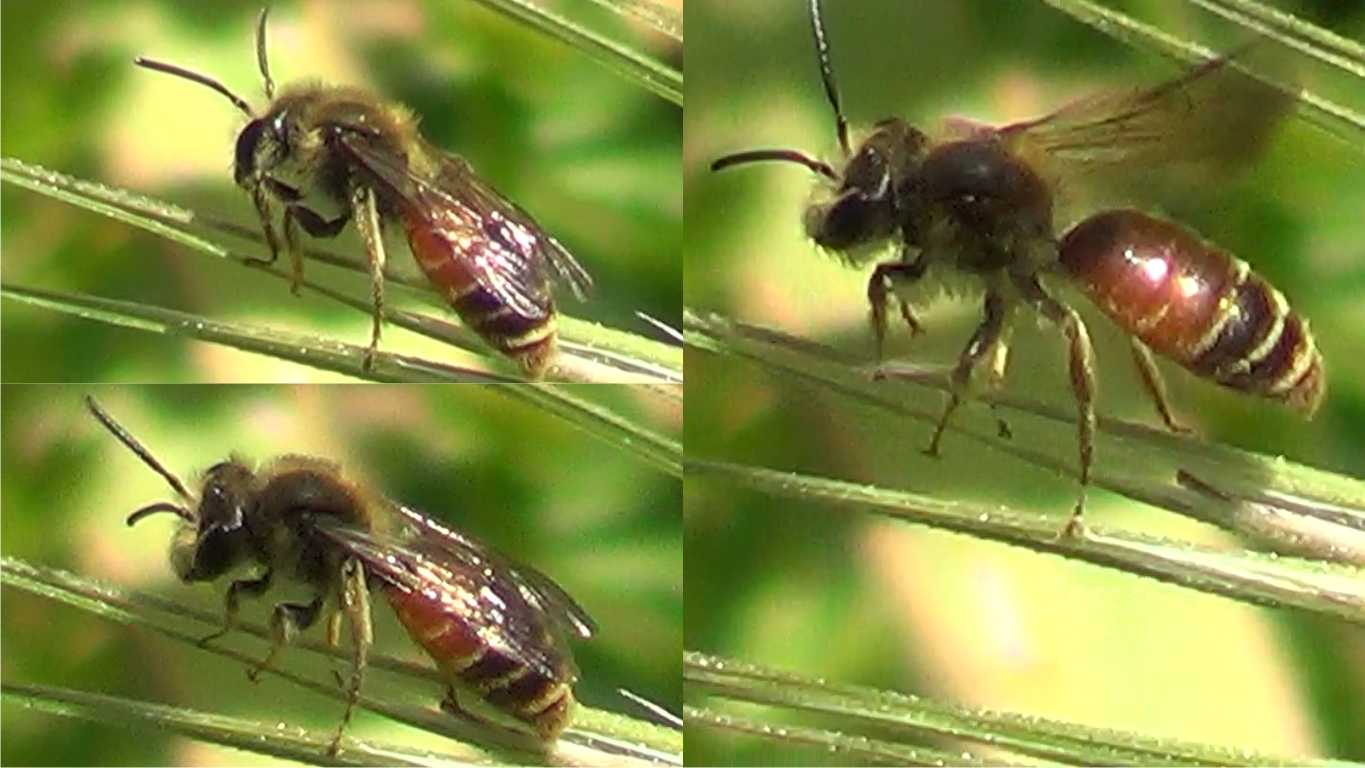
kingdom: Animalia
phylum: Arthropoda
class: Insecta
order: Hymenoptera
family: Andrenidae
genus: Andrena
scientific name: Andrena schencki
